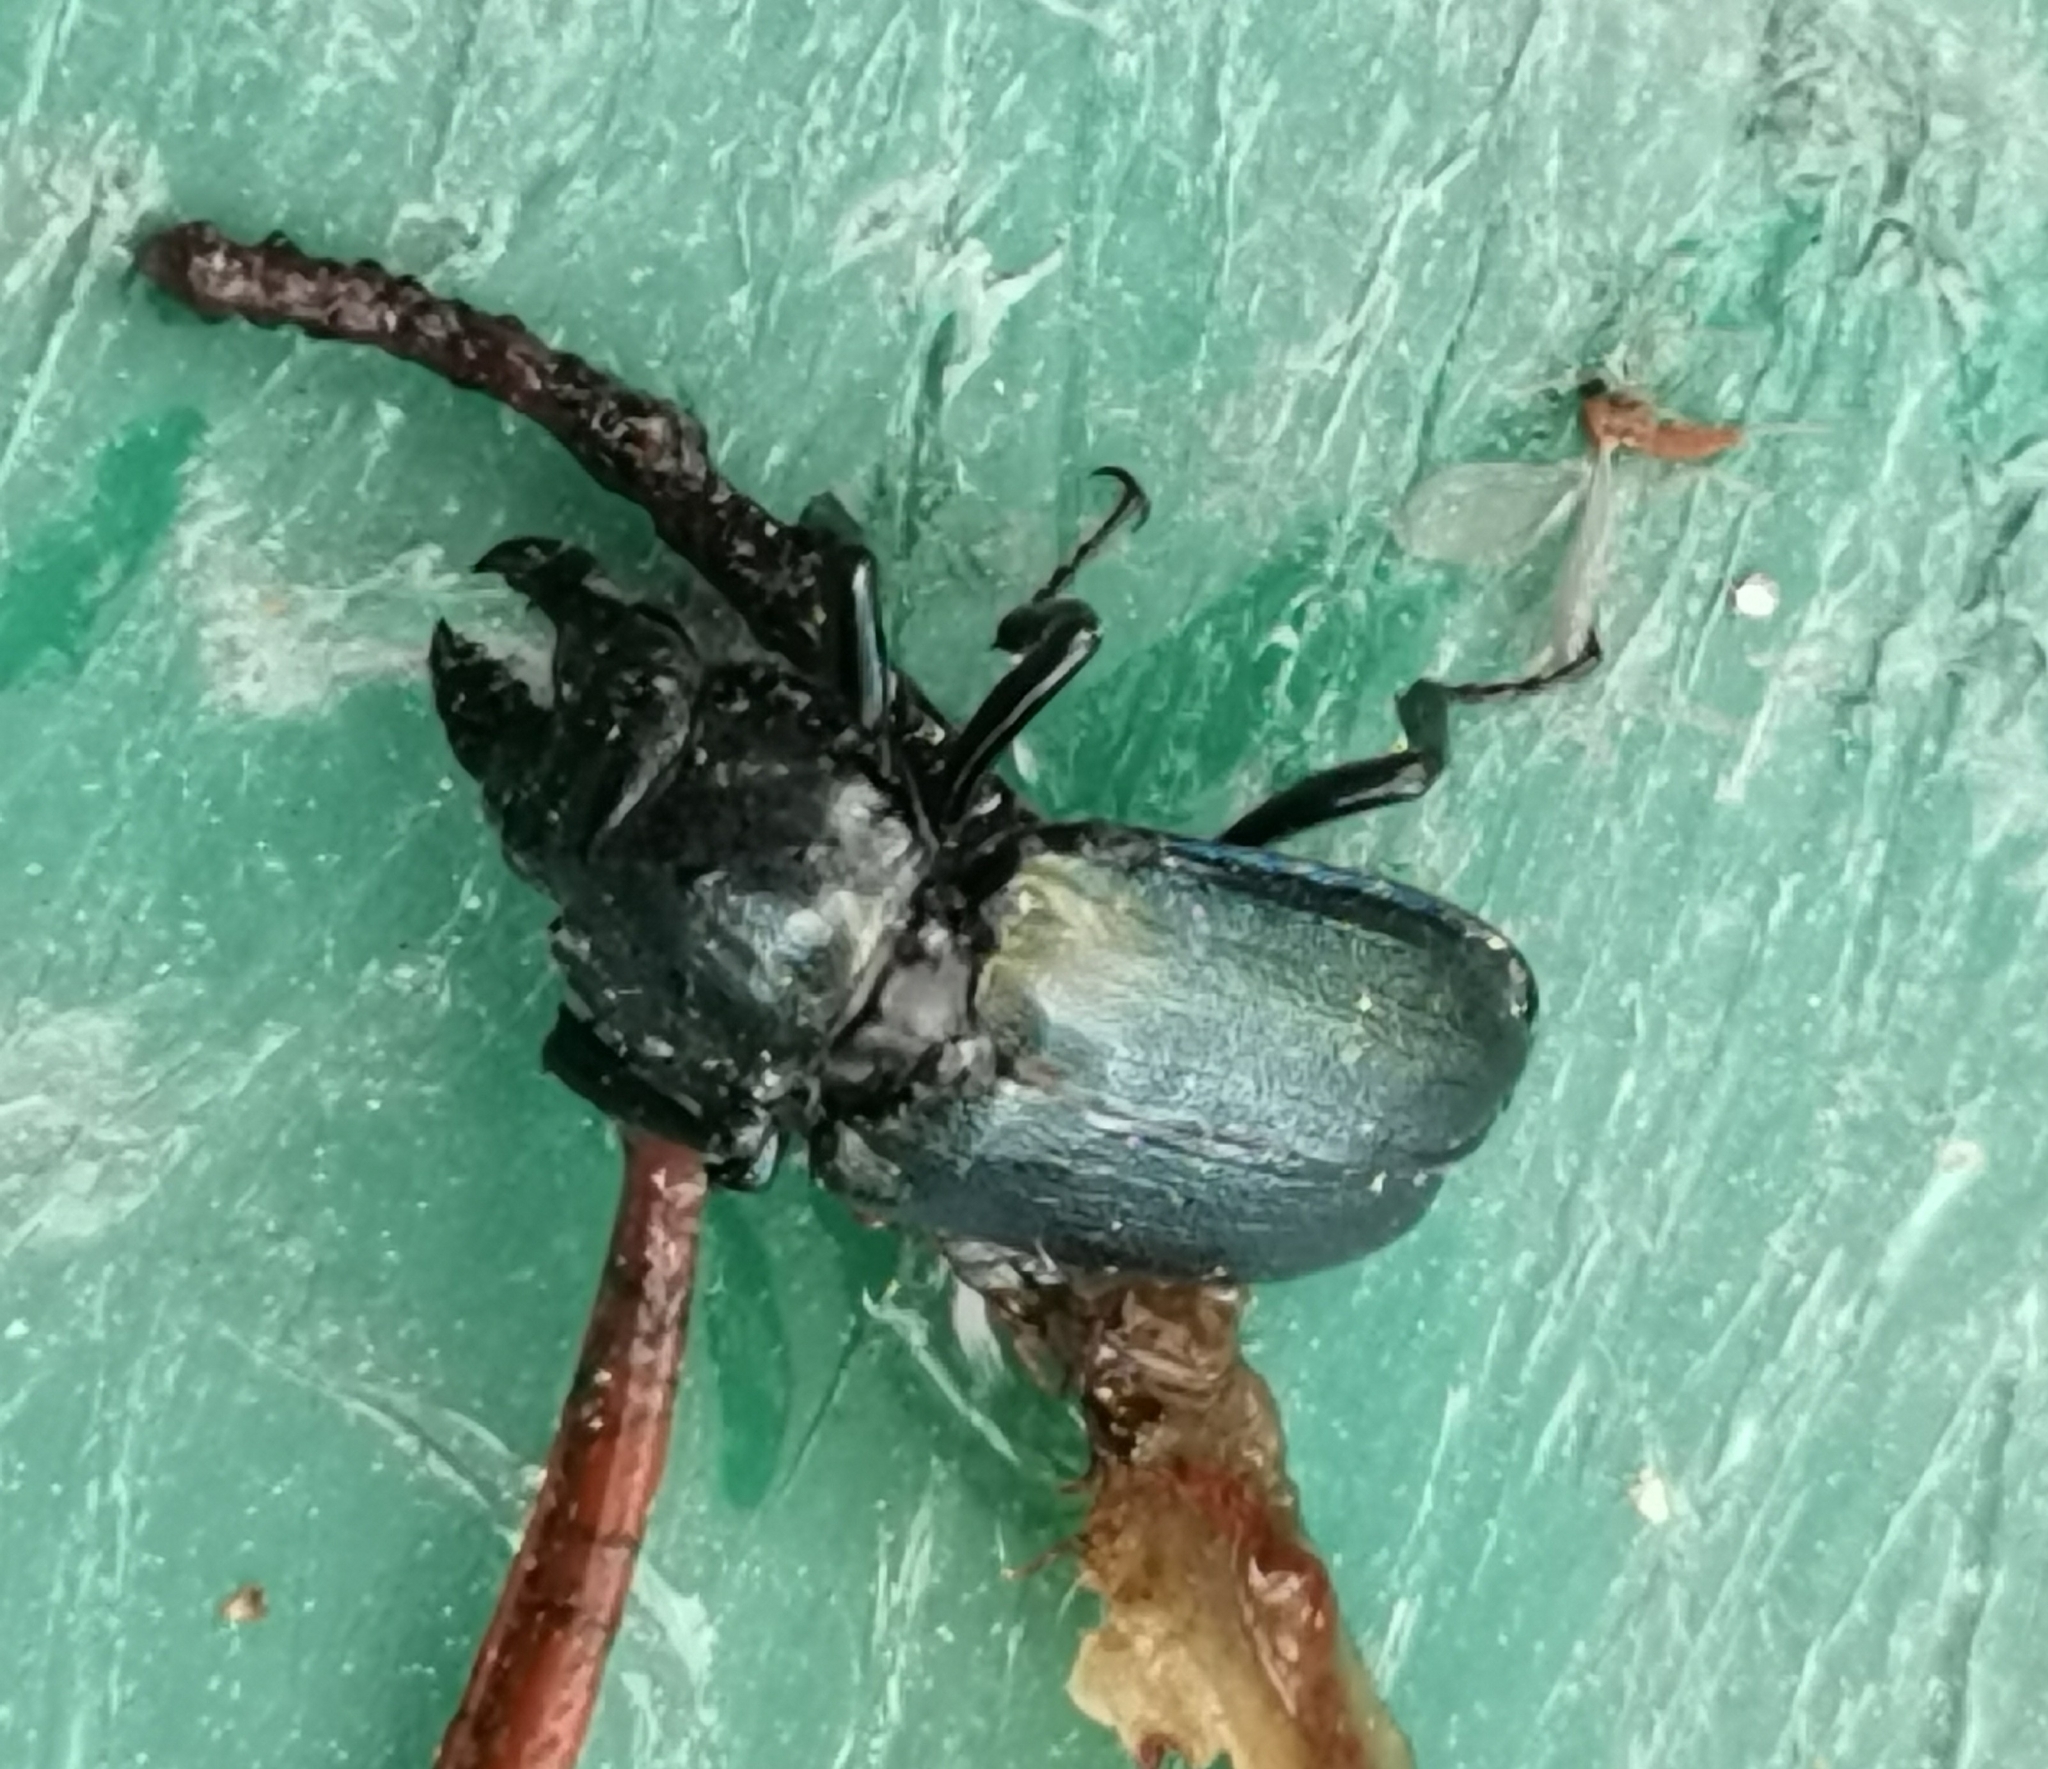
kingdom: Animalia
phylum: Arthropoda
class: Insecta
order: Coleoptera
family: Lucanidae
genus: Platycerus
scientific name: Platycerus caprea
